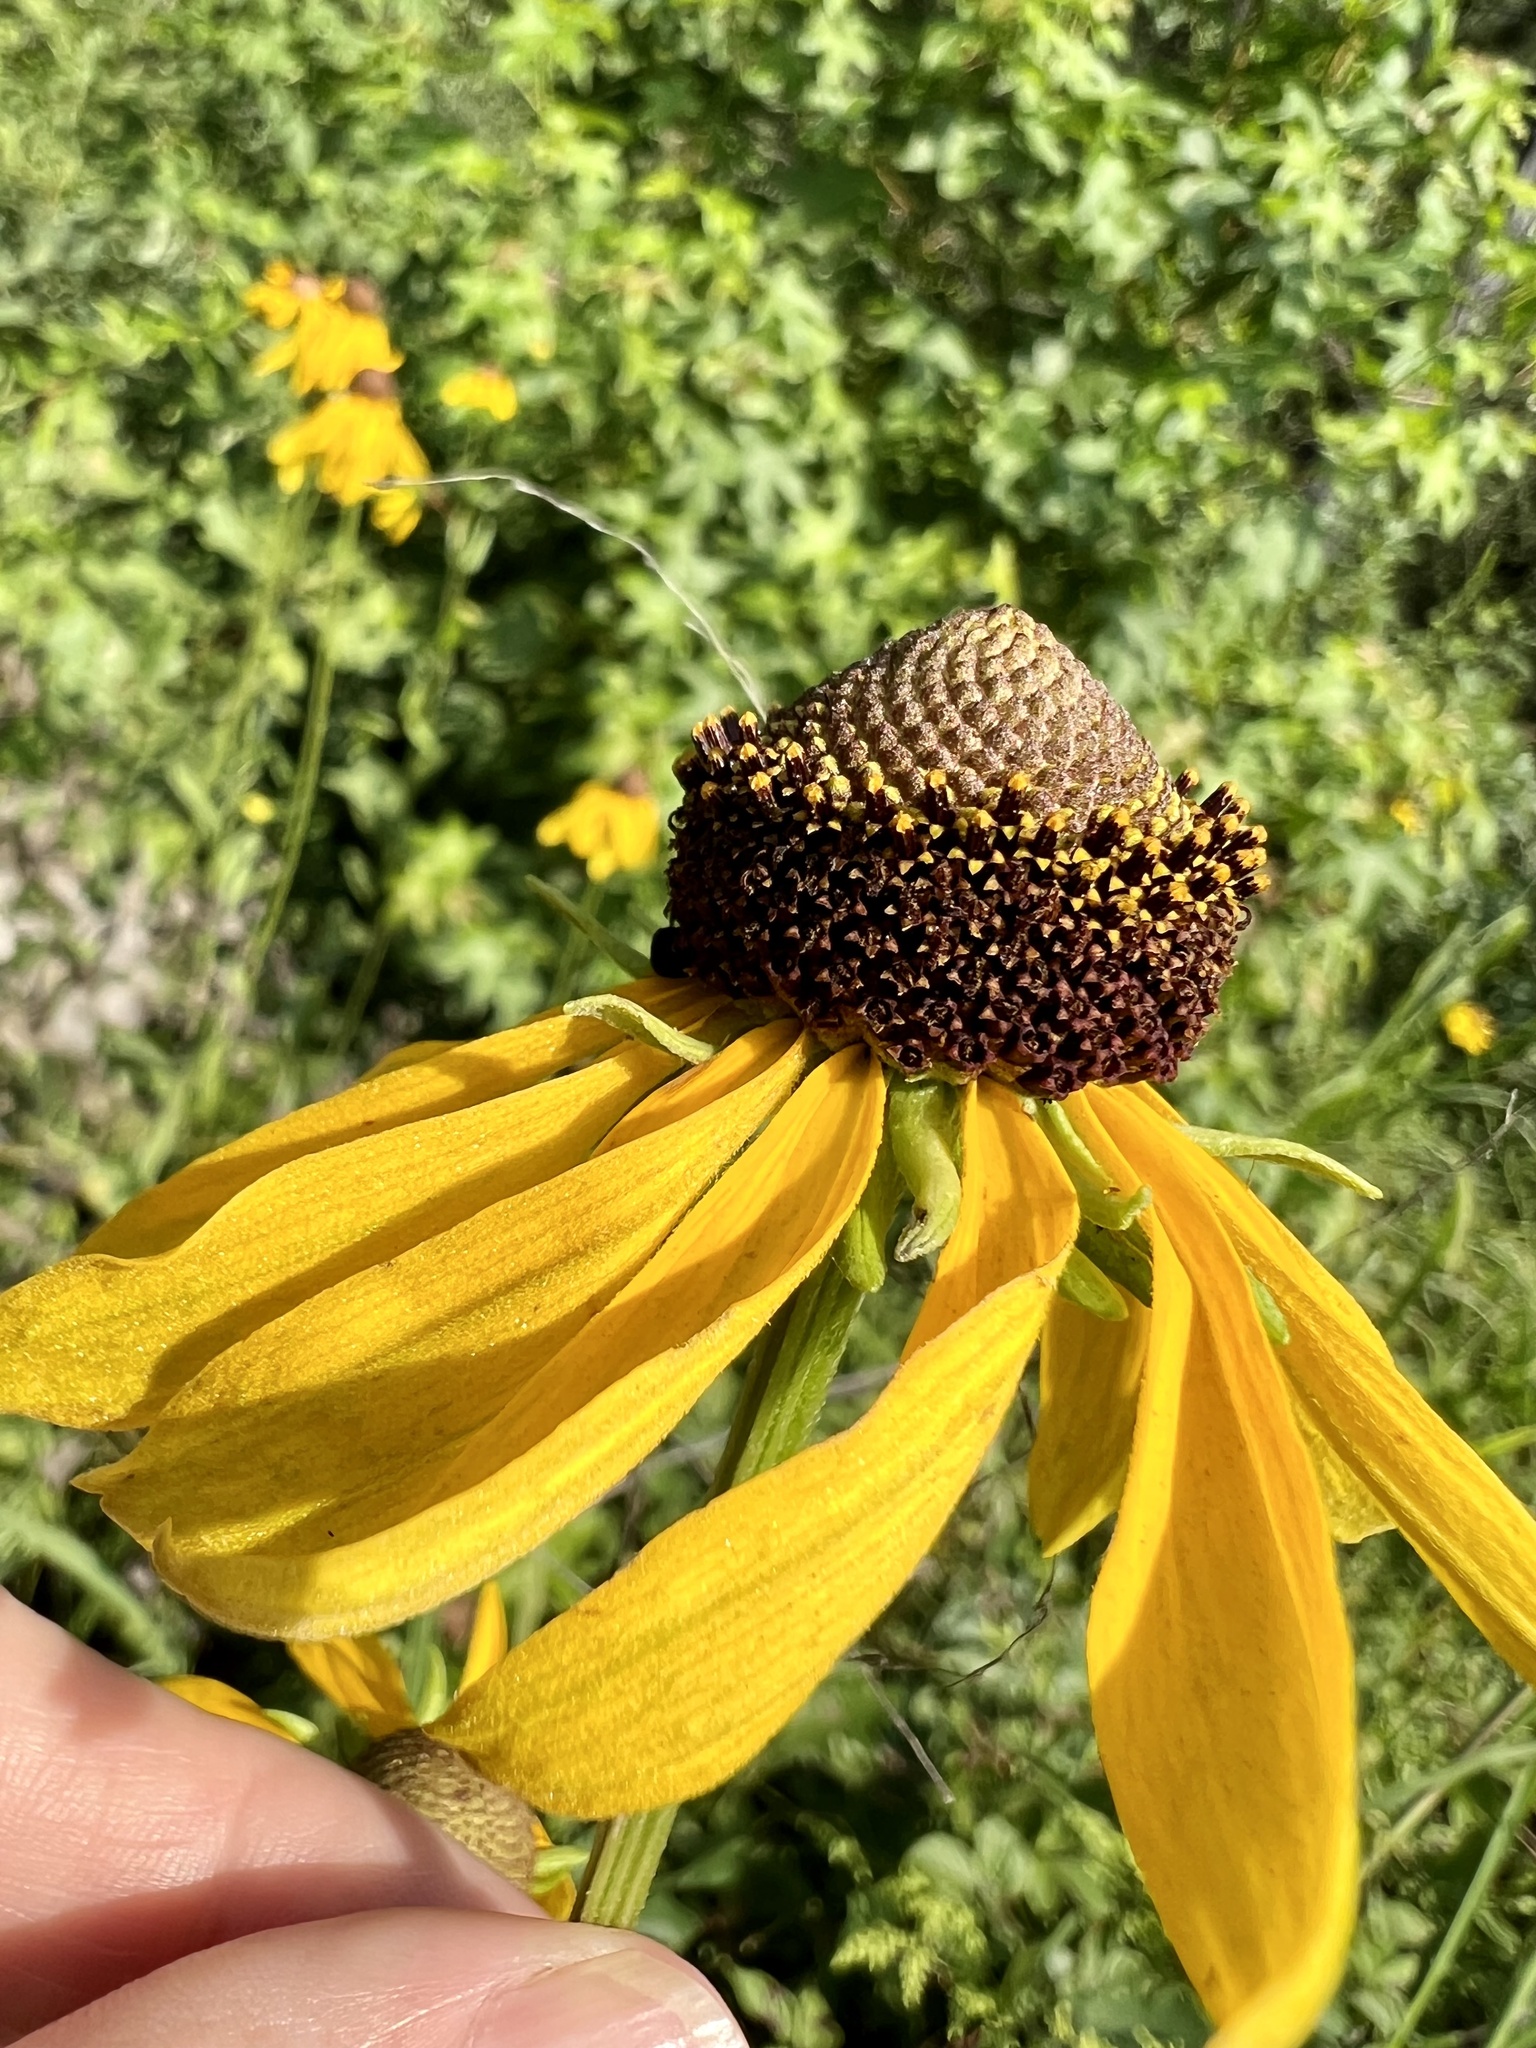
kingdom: Plantae
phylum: Tracheophyta
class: Magnoliopsida
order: Asterales
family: Asteraceae
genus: Rudbeckia
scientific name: Rudbeckia grandiflora
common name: Large-flowered coneflower
